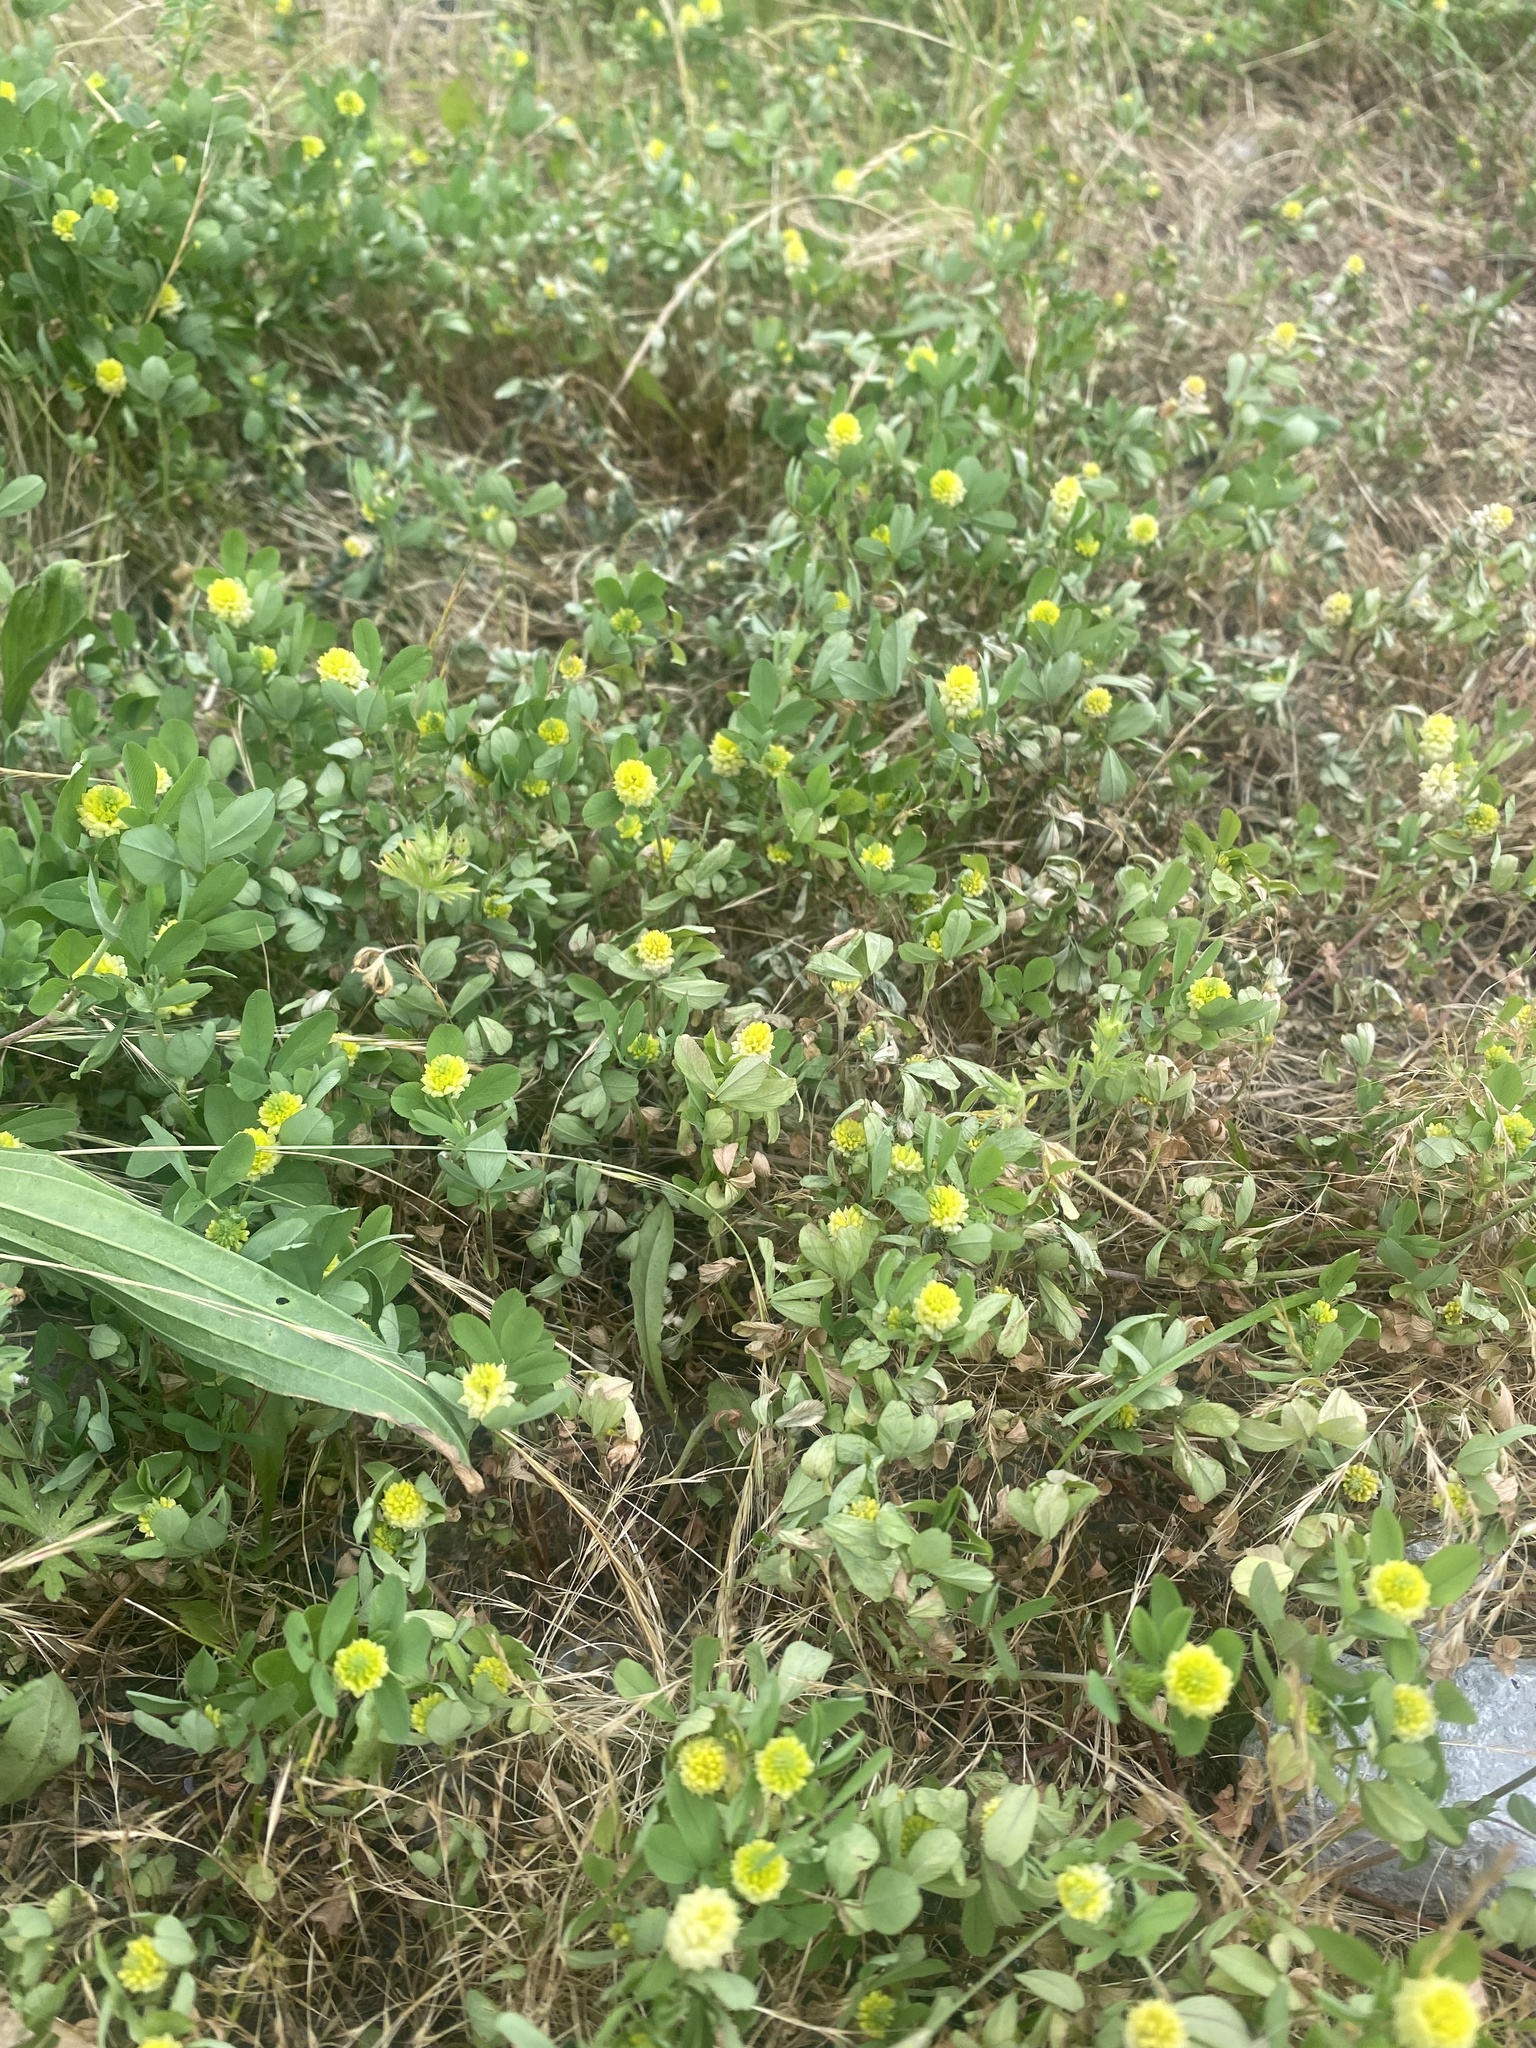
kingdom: Plantae
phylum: Tracheophyta
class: Magnoliopsida
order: Fabales
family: Fabaceae
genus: Trifolium
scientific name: Trifolium campestre
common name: Field clover
